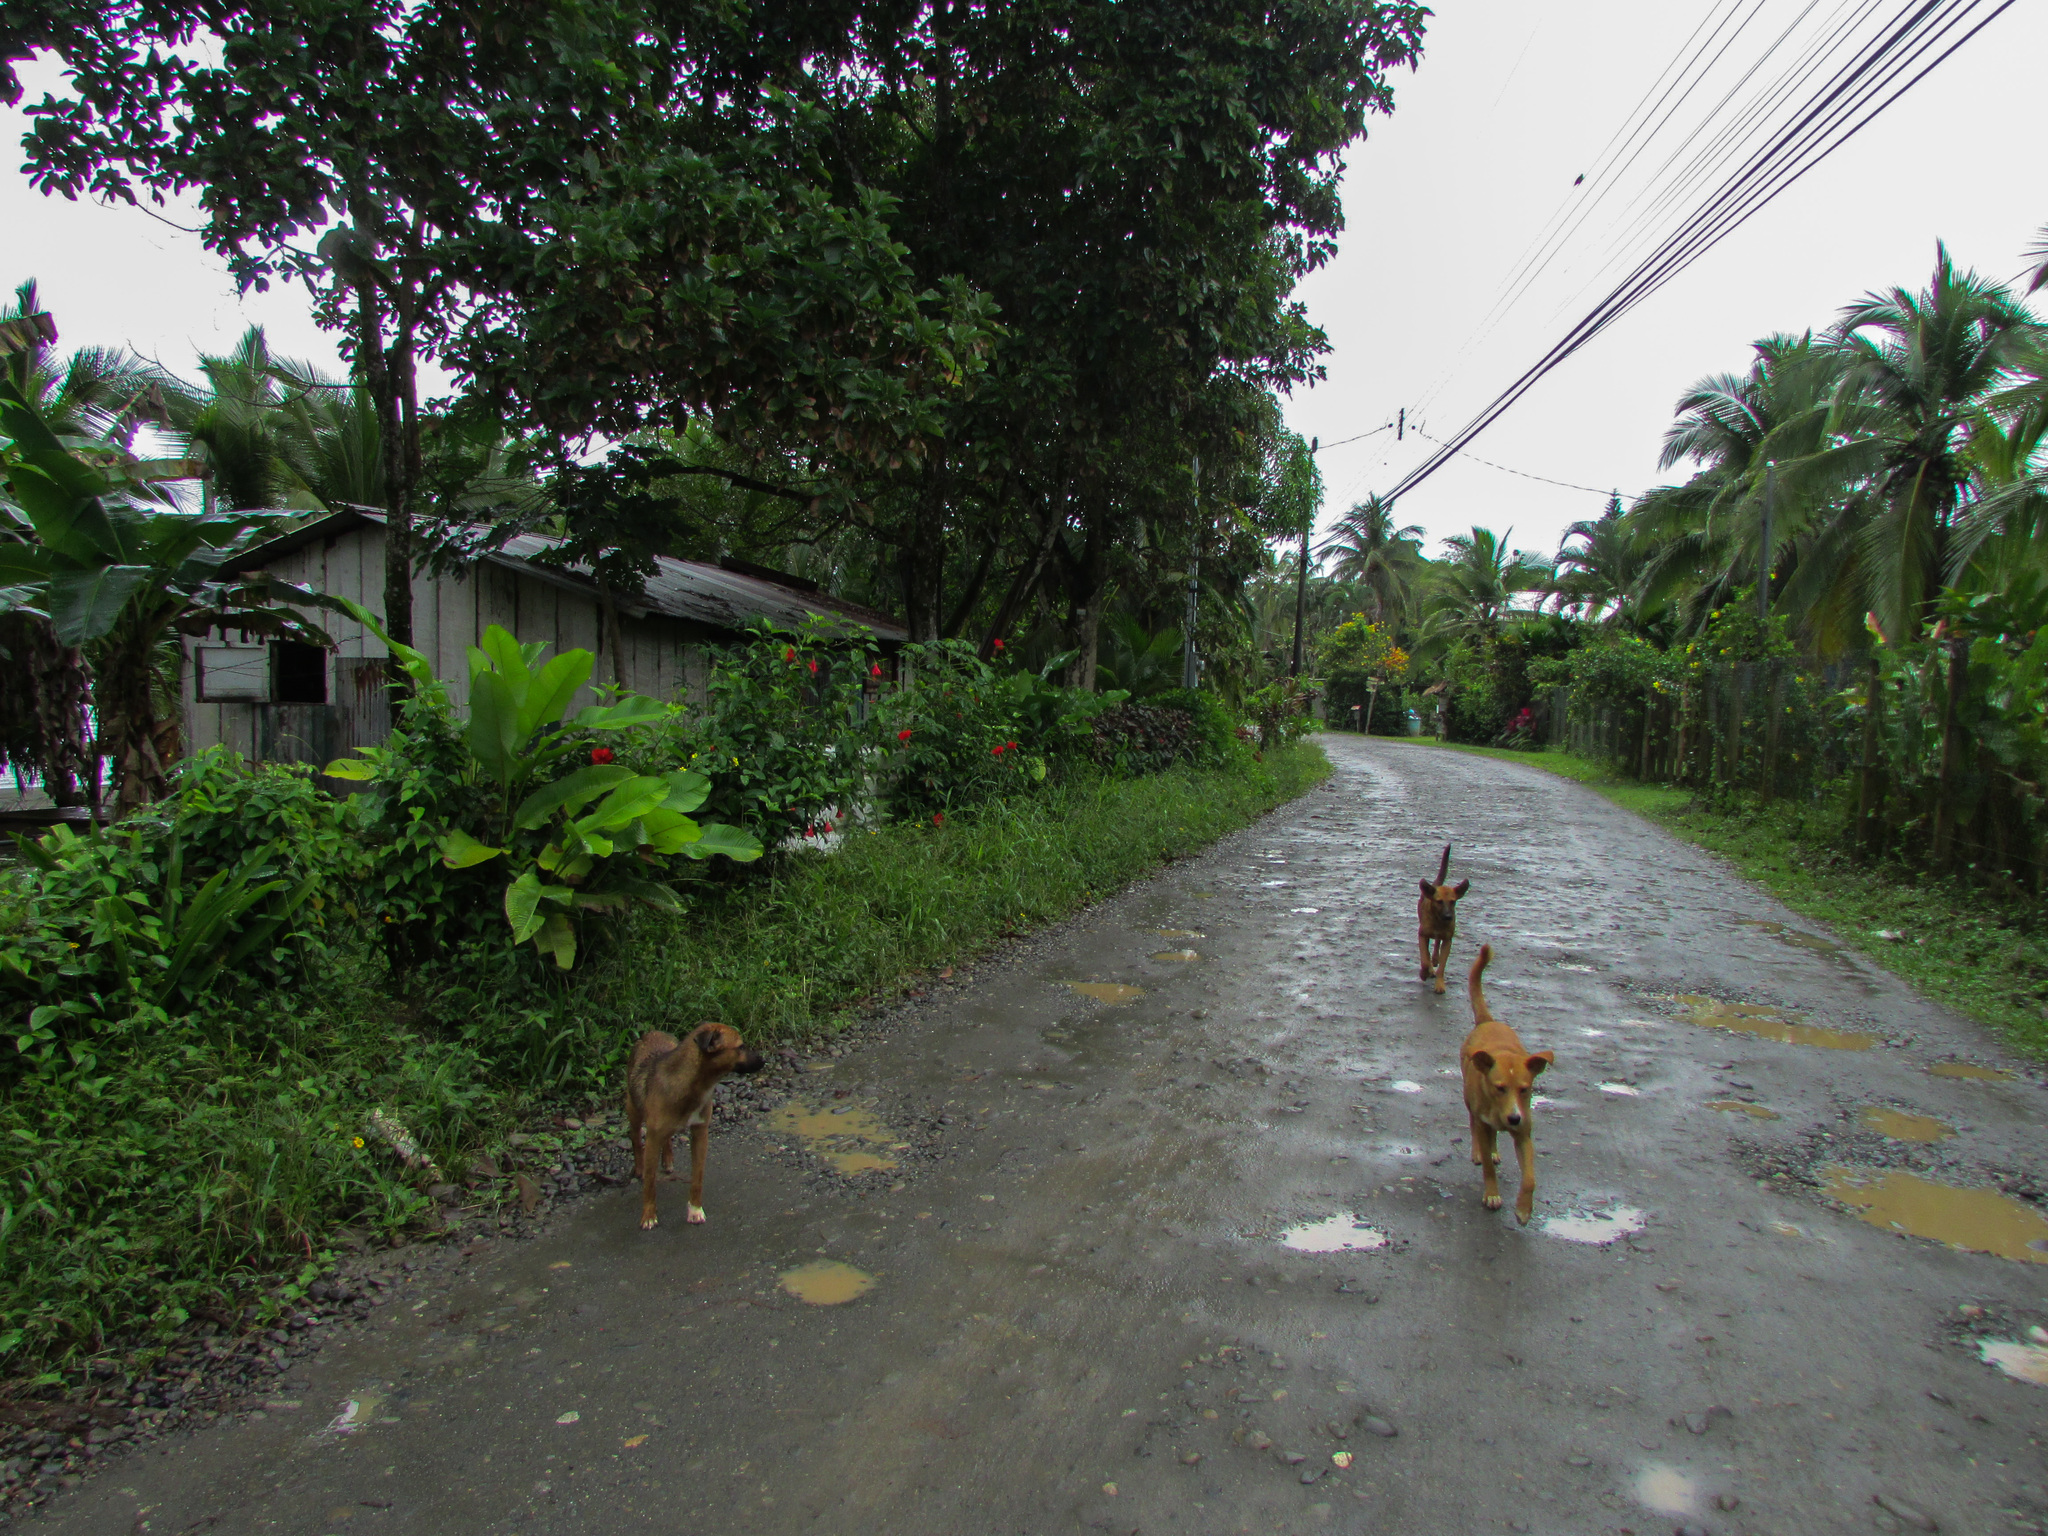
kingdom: Animalia
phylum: Chordata
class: Mammalia
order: Carnivora
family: Canidae
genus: Canis
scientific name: Canis lupus
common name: Gray wolf
